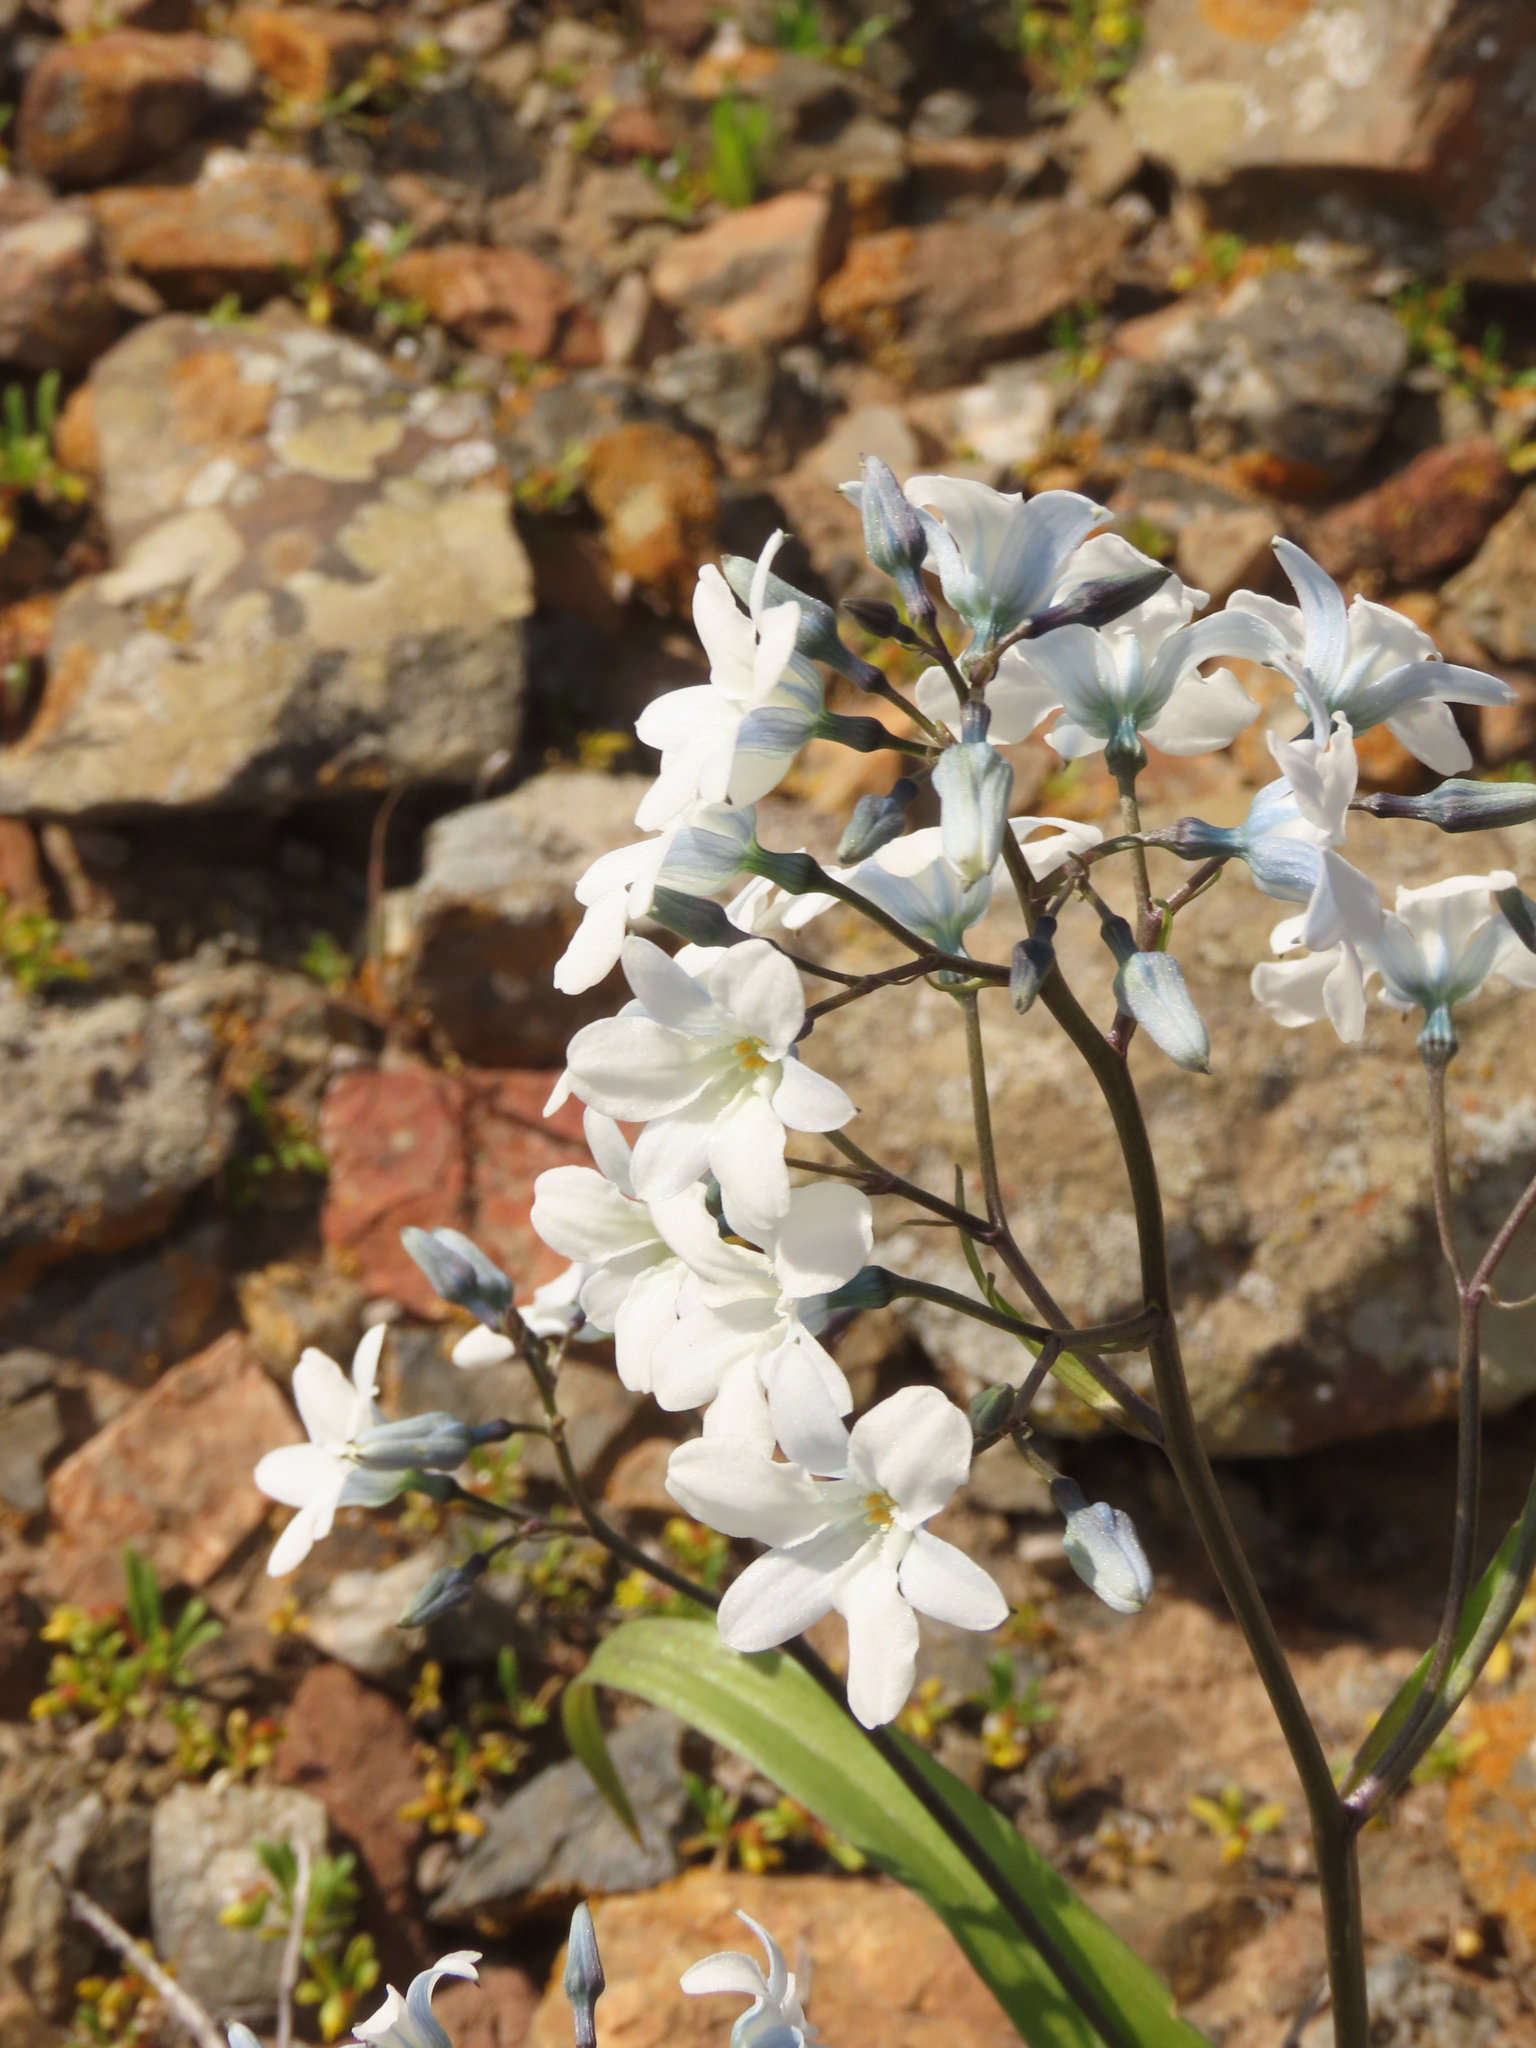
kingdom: Plantae
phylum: Tracheophyta
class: Liliopsida
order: Asparagales
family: Tecophilaeaceae
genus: Zephyra
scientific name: Zephyra elegans
